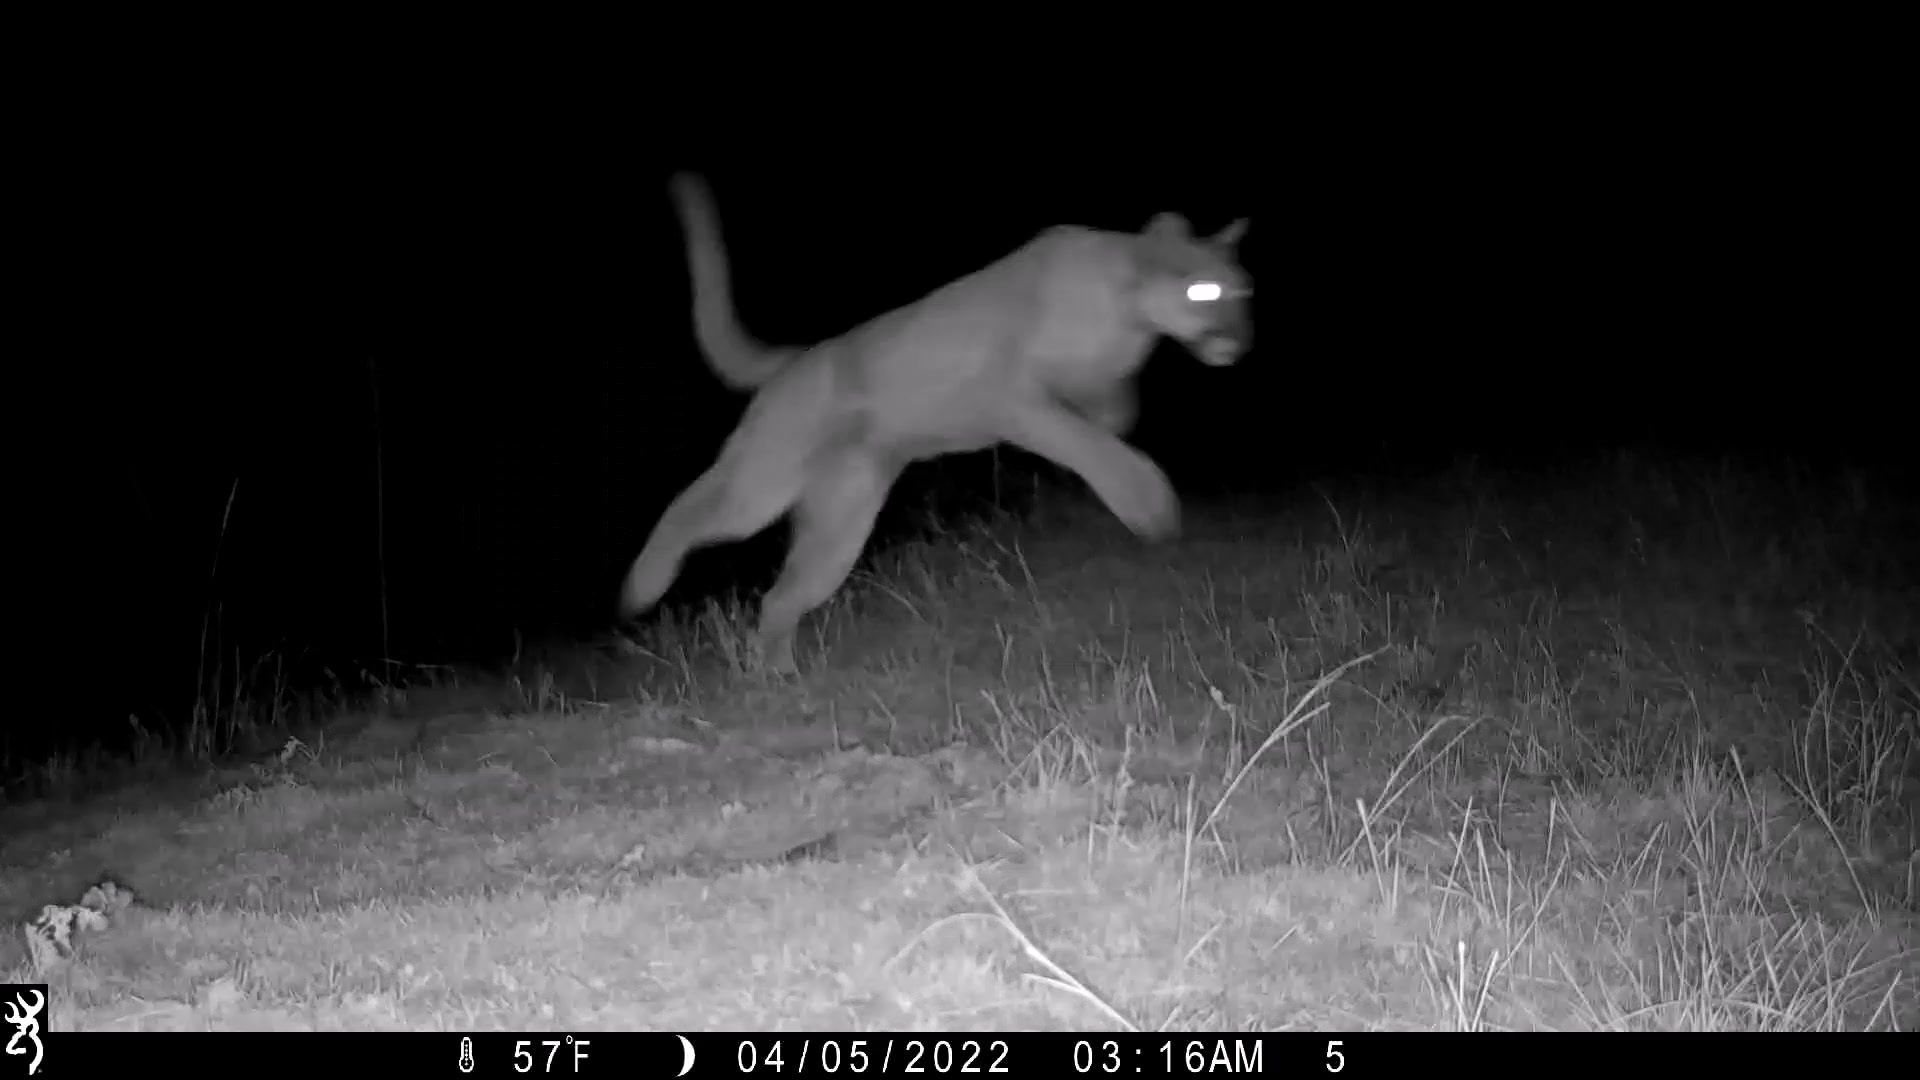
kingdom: Animalia
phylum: Chordata
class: Mammalia
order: Carnivora
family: Felidae
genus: Puma
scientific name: Puma concolor
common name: Puma
